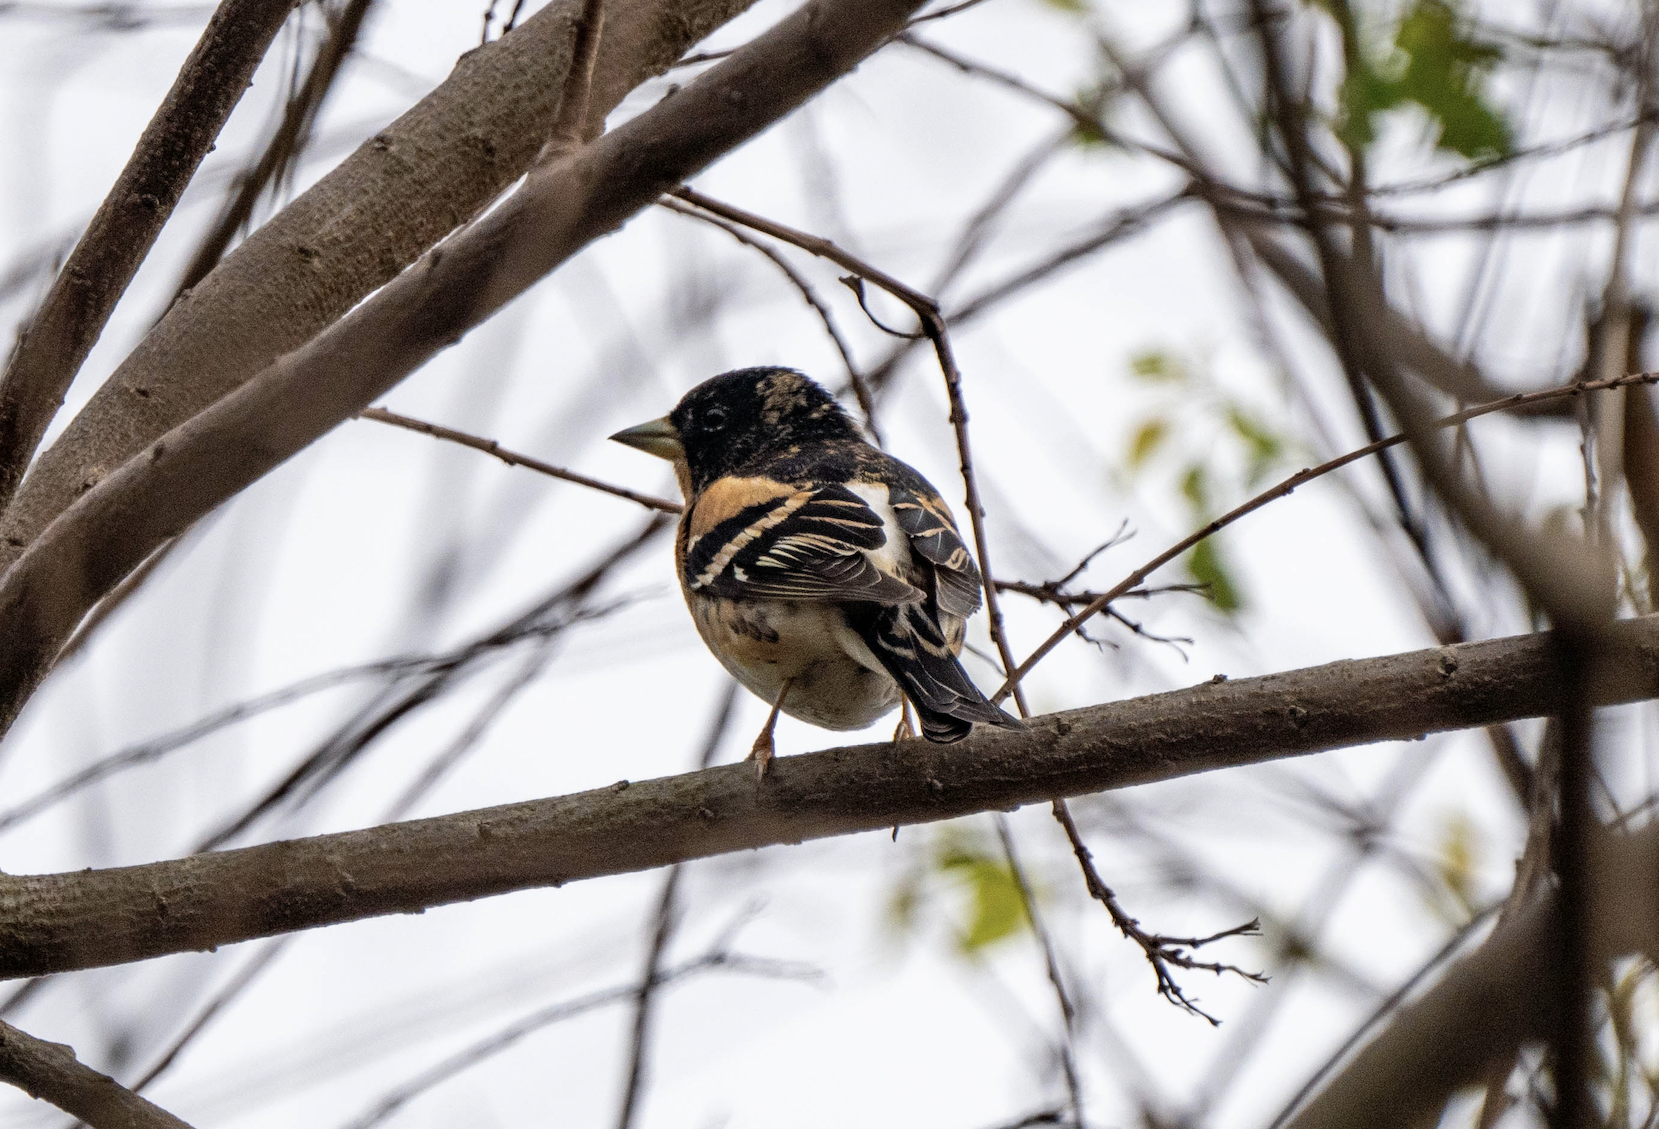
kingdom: Animalia
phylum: Chordata
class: Aves
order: Passeriformes
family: Fringillidae
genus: Fringilla
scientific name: Fringilla montifringilla
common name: Brambling
